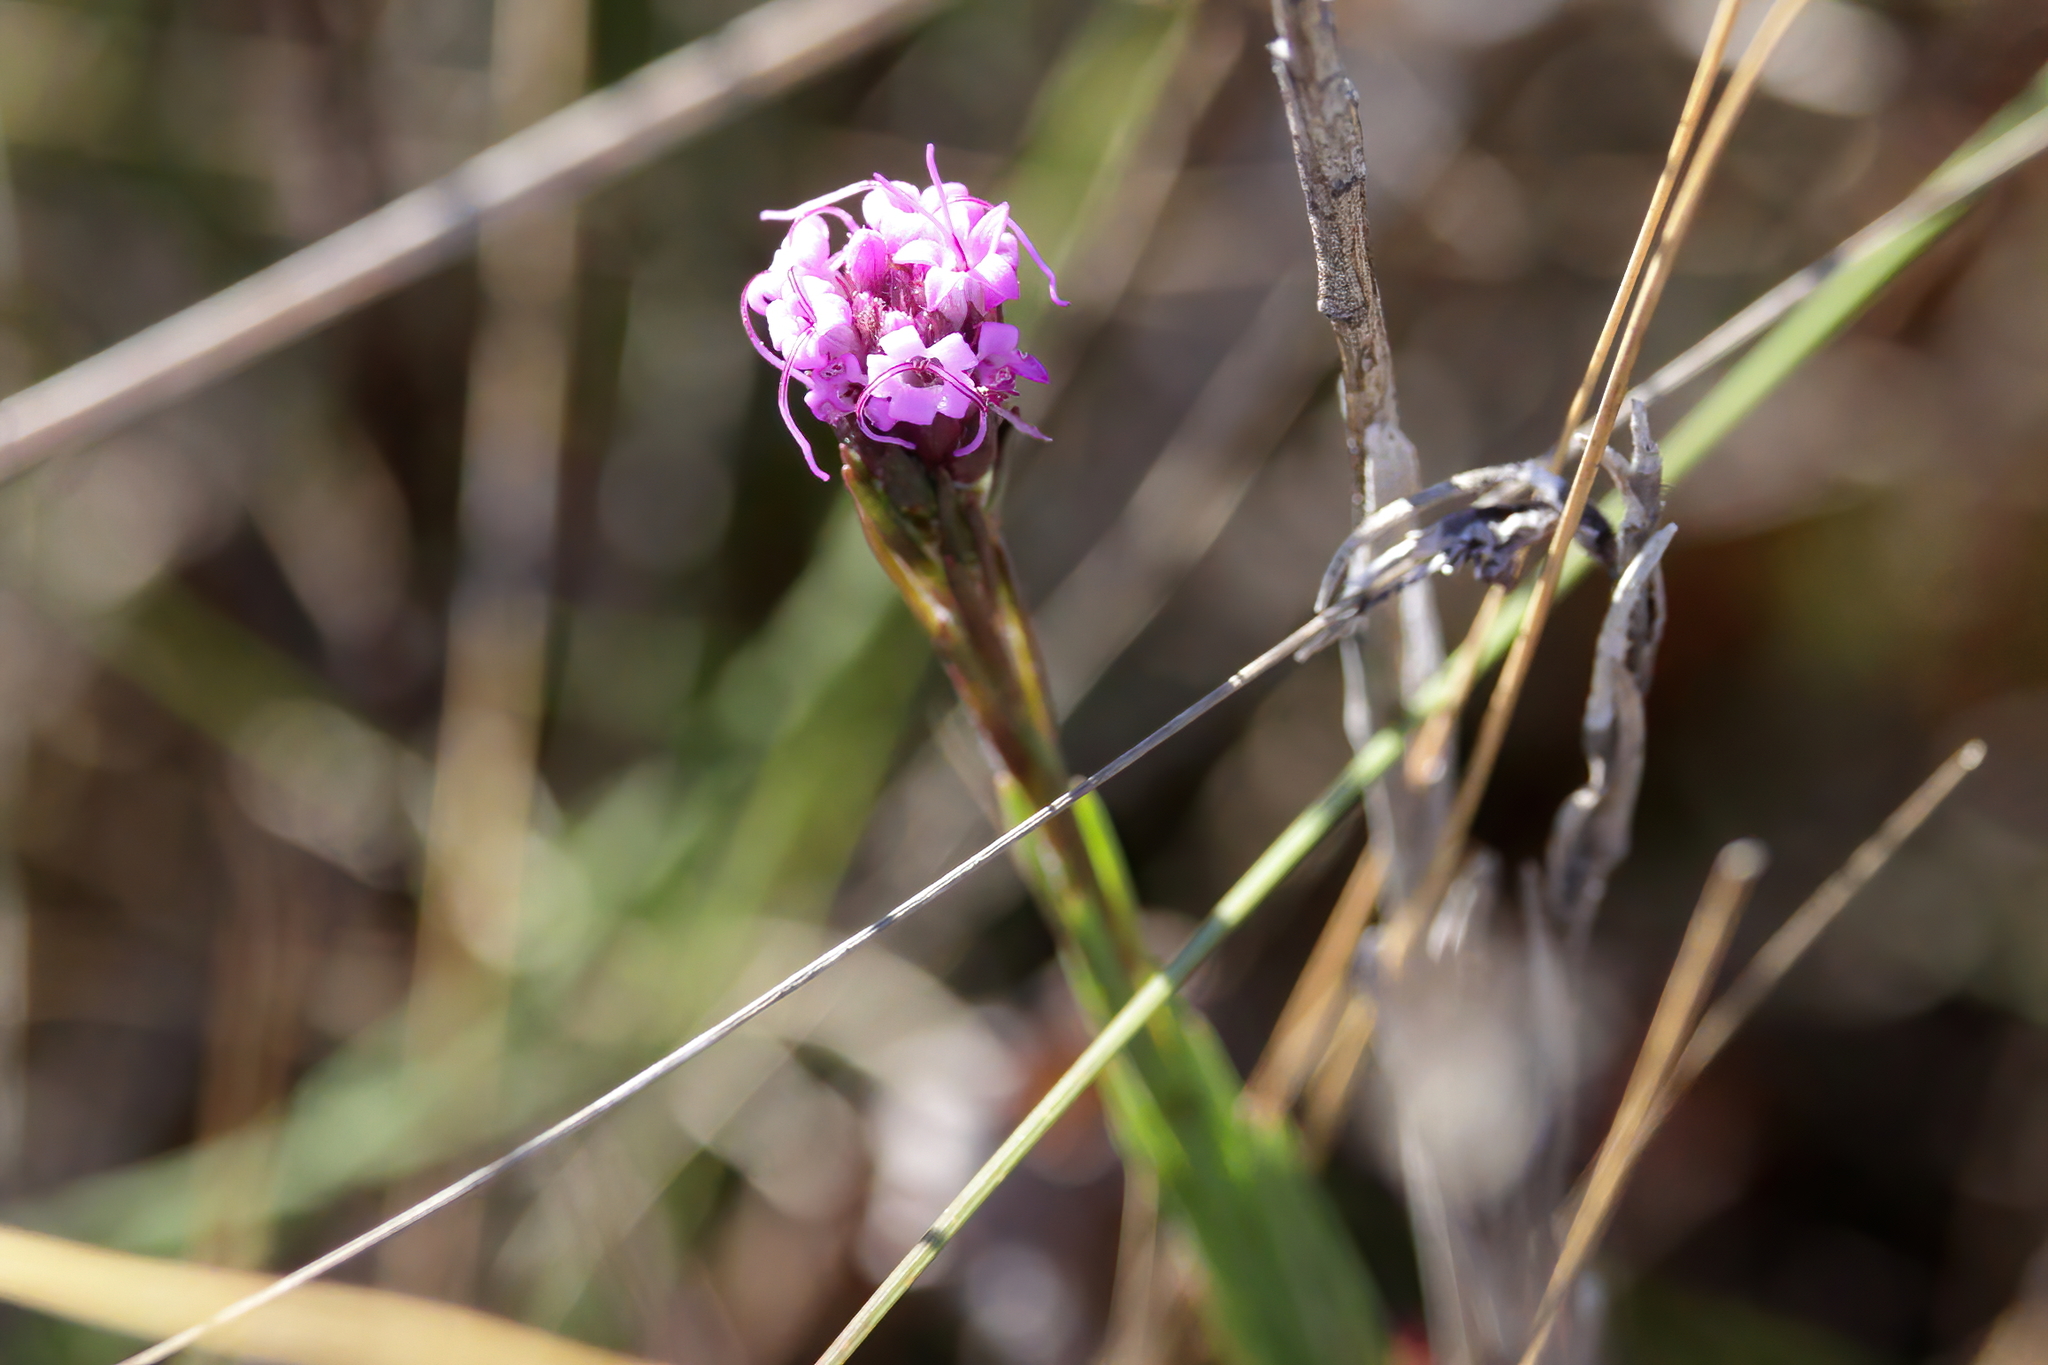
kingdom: Plantae
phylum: Tracheophyta
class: Magnoliopsida
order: Asterales
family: Asteraceae
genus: Carphephorus
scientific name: Carphephorus pseudoliatris
